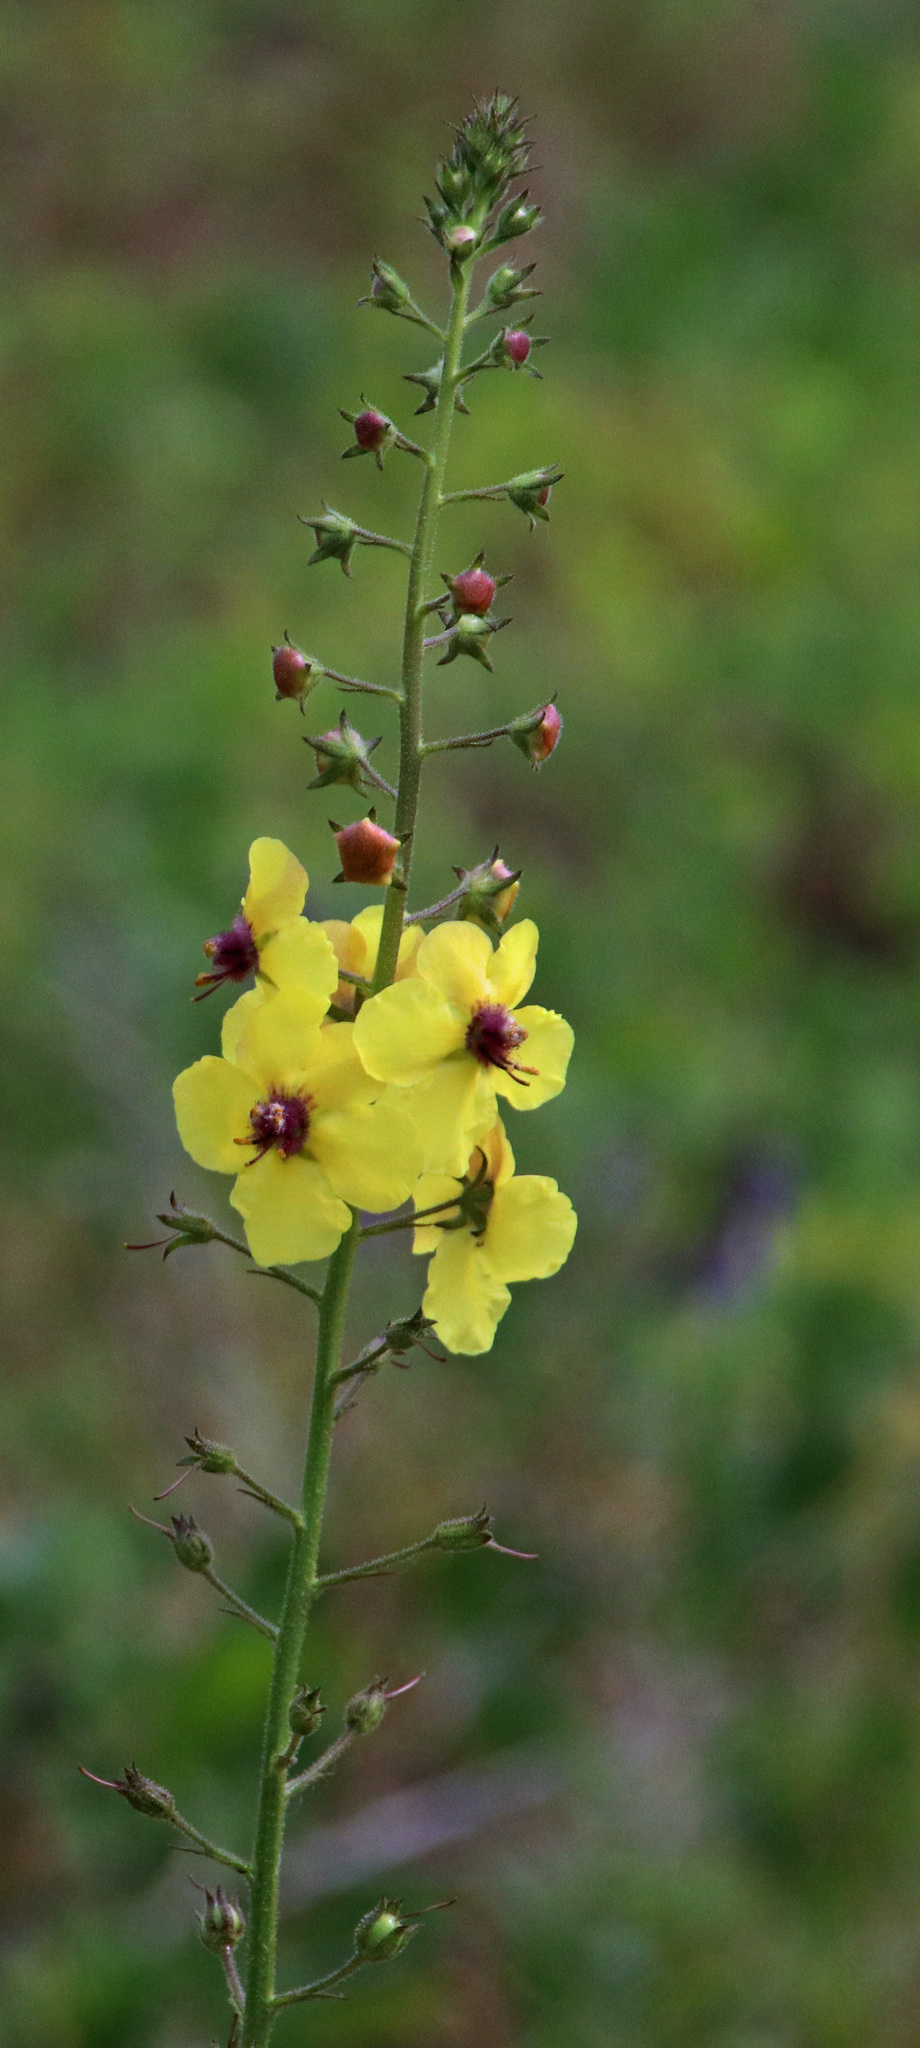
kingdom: Plantae
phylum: Tracheophyta
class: Magnoliopsida
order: Lamiales
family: Scrophulariaceae
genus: Verbascum
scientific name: Verbascum blattaria
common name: Moth mullein
